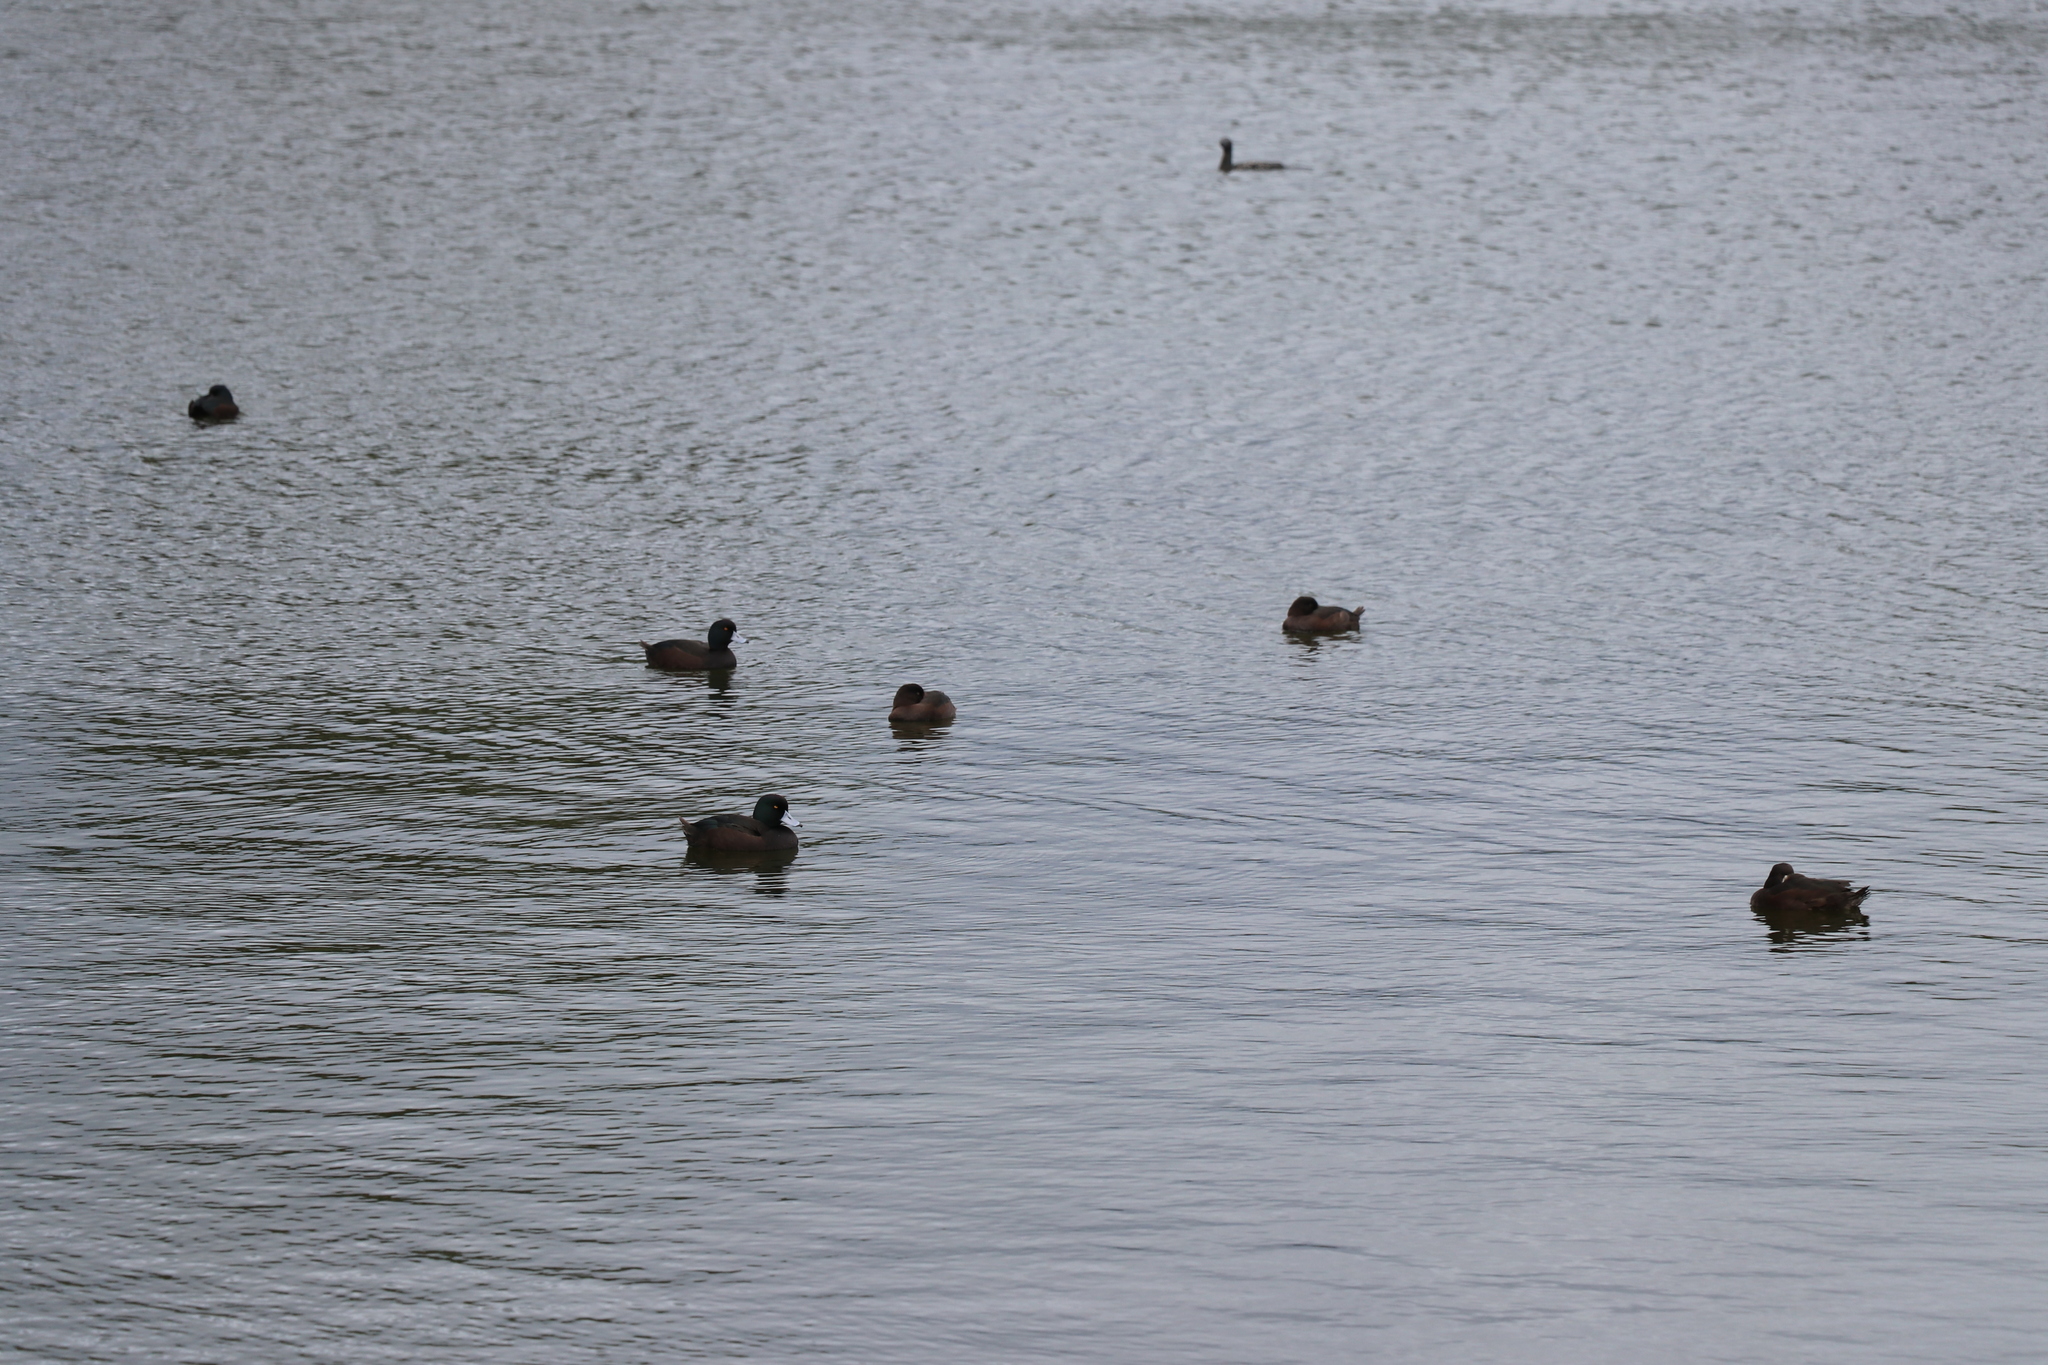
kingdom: Animalia
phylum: Chordata
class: Aves
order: Anseriformes
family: Anatidae
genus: Aythya
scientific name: Aythya novaeseelandiae
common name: New zealand scaup
